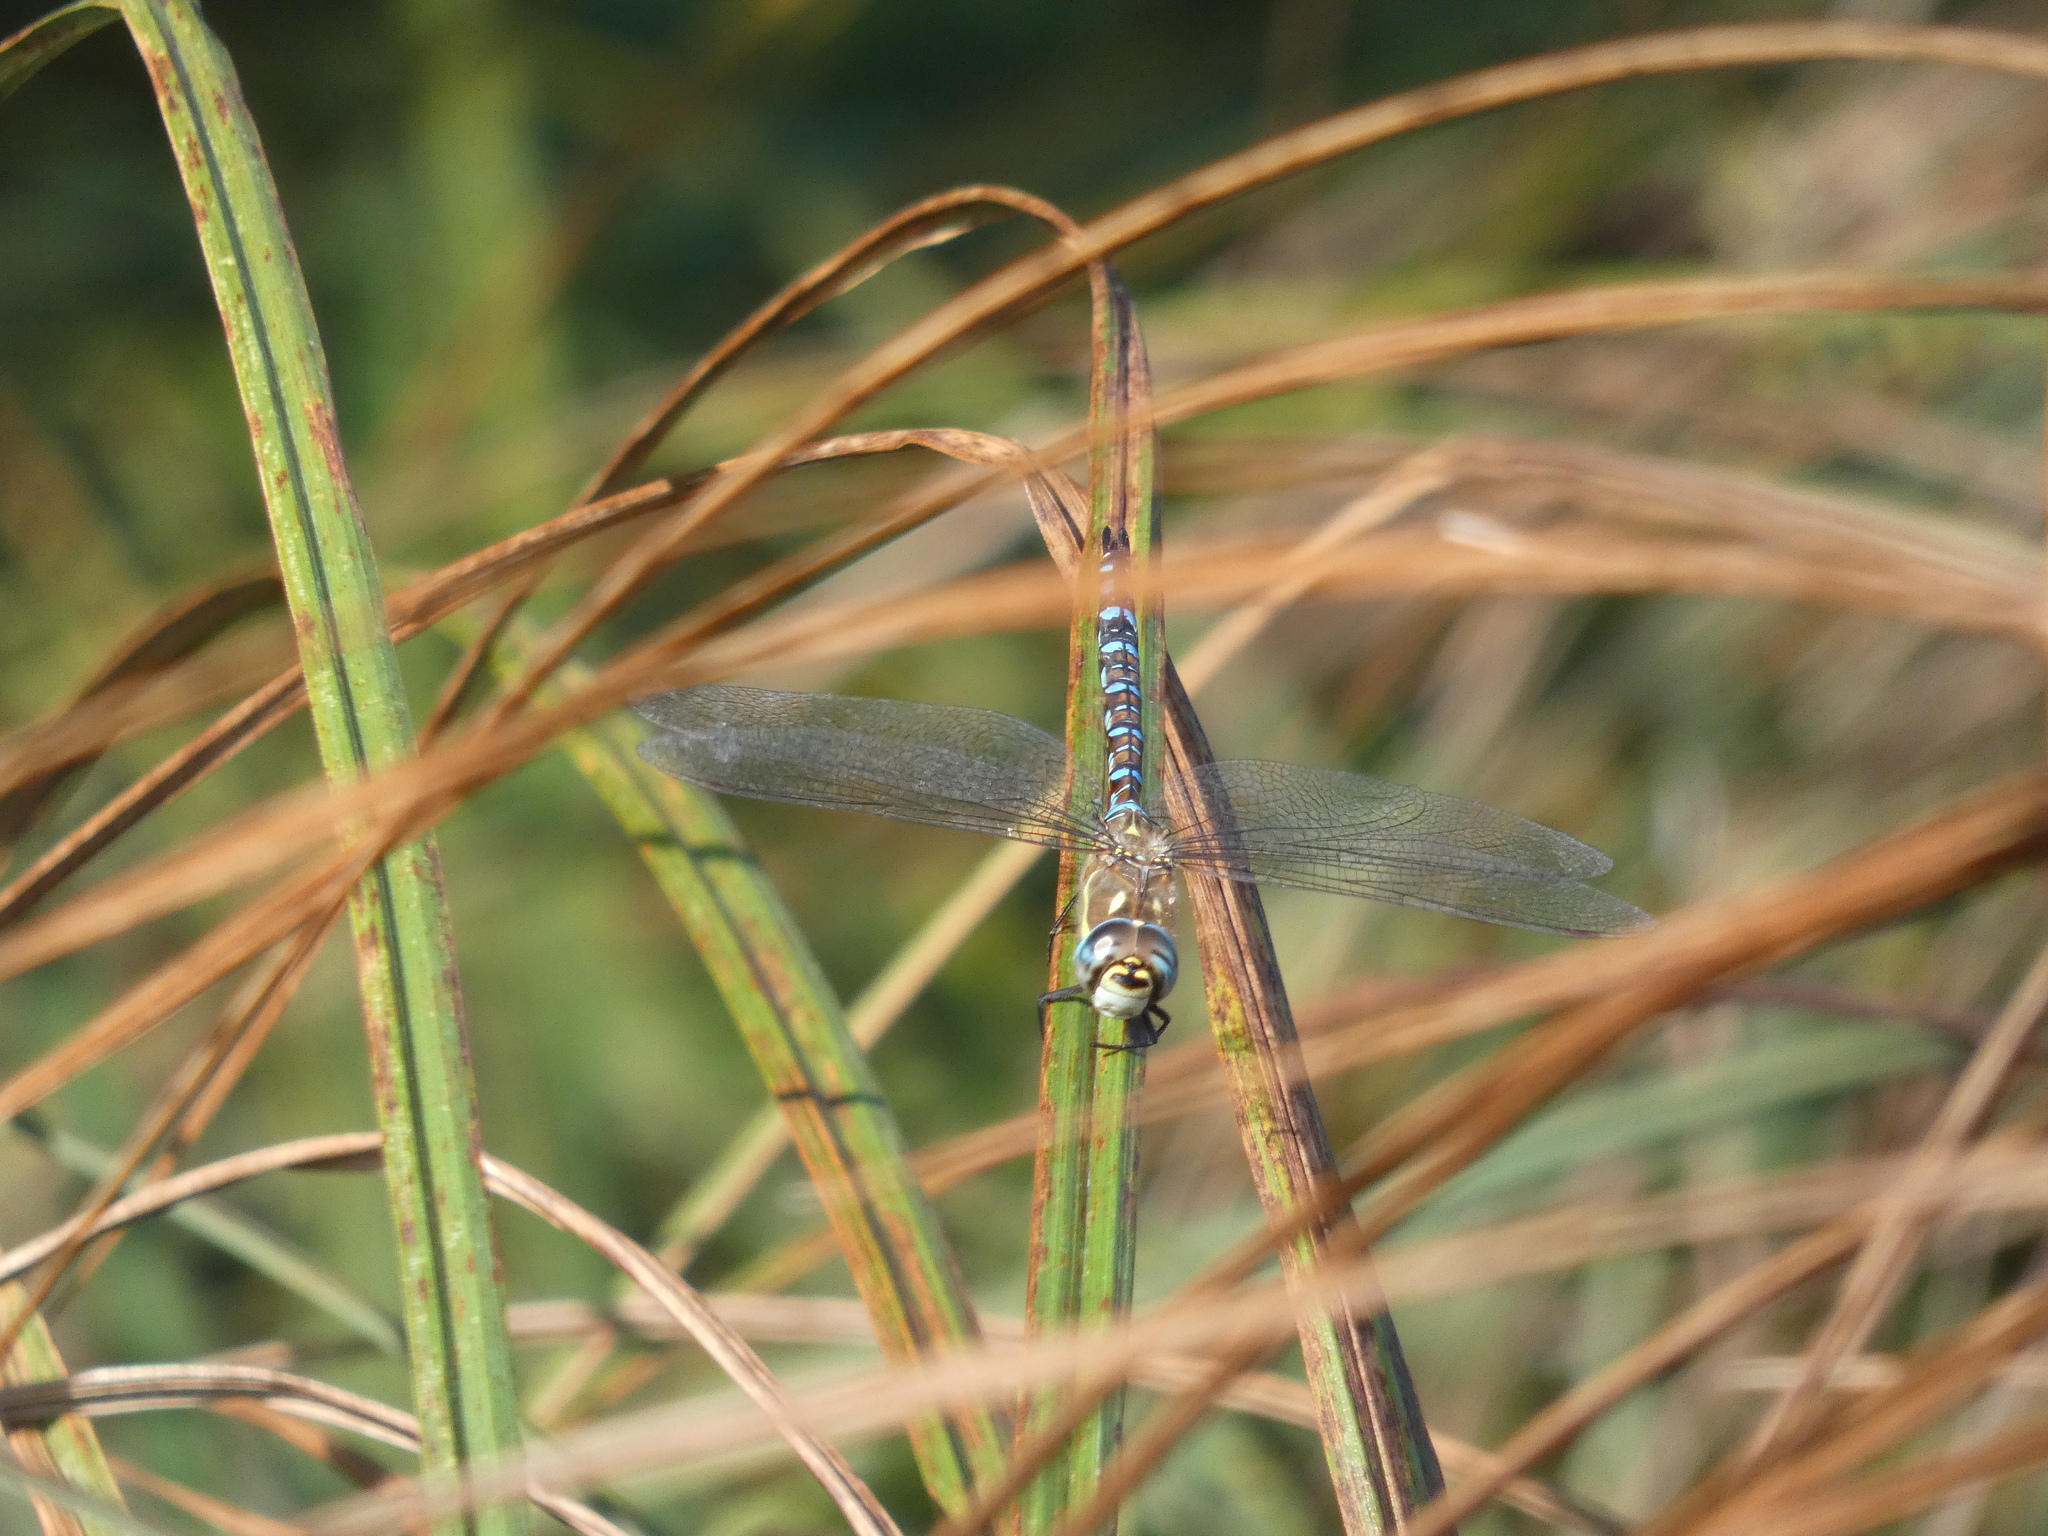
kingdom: Animalia
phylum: Arthropoda
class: Insecta
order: Odonata
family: Aeshnidae
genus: Aeshna
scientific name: Aeshna mixta
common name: Migrant hawker
